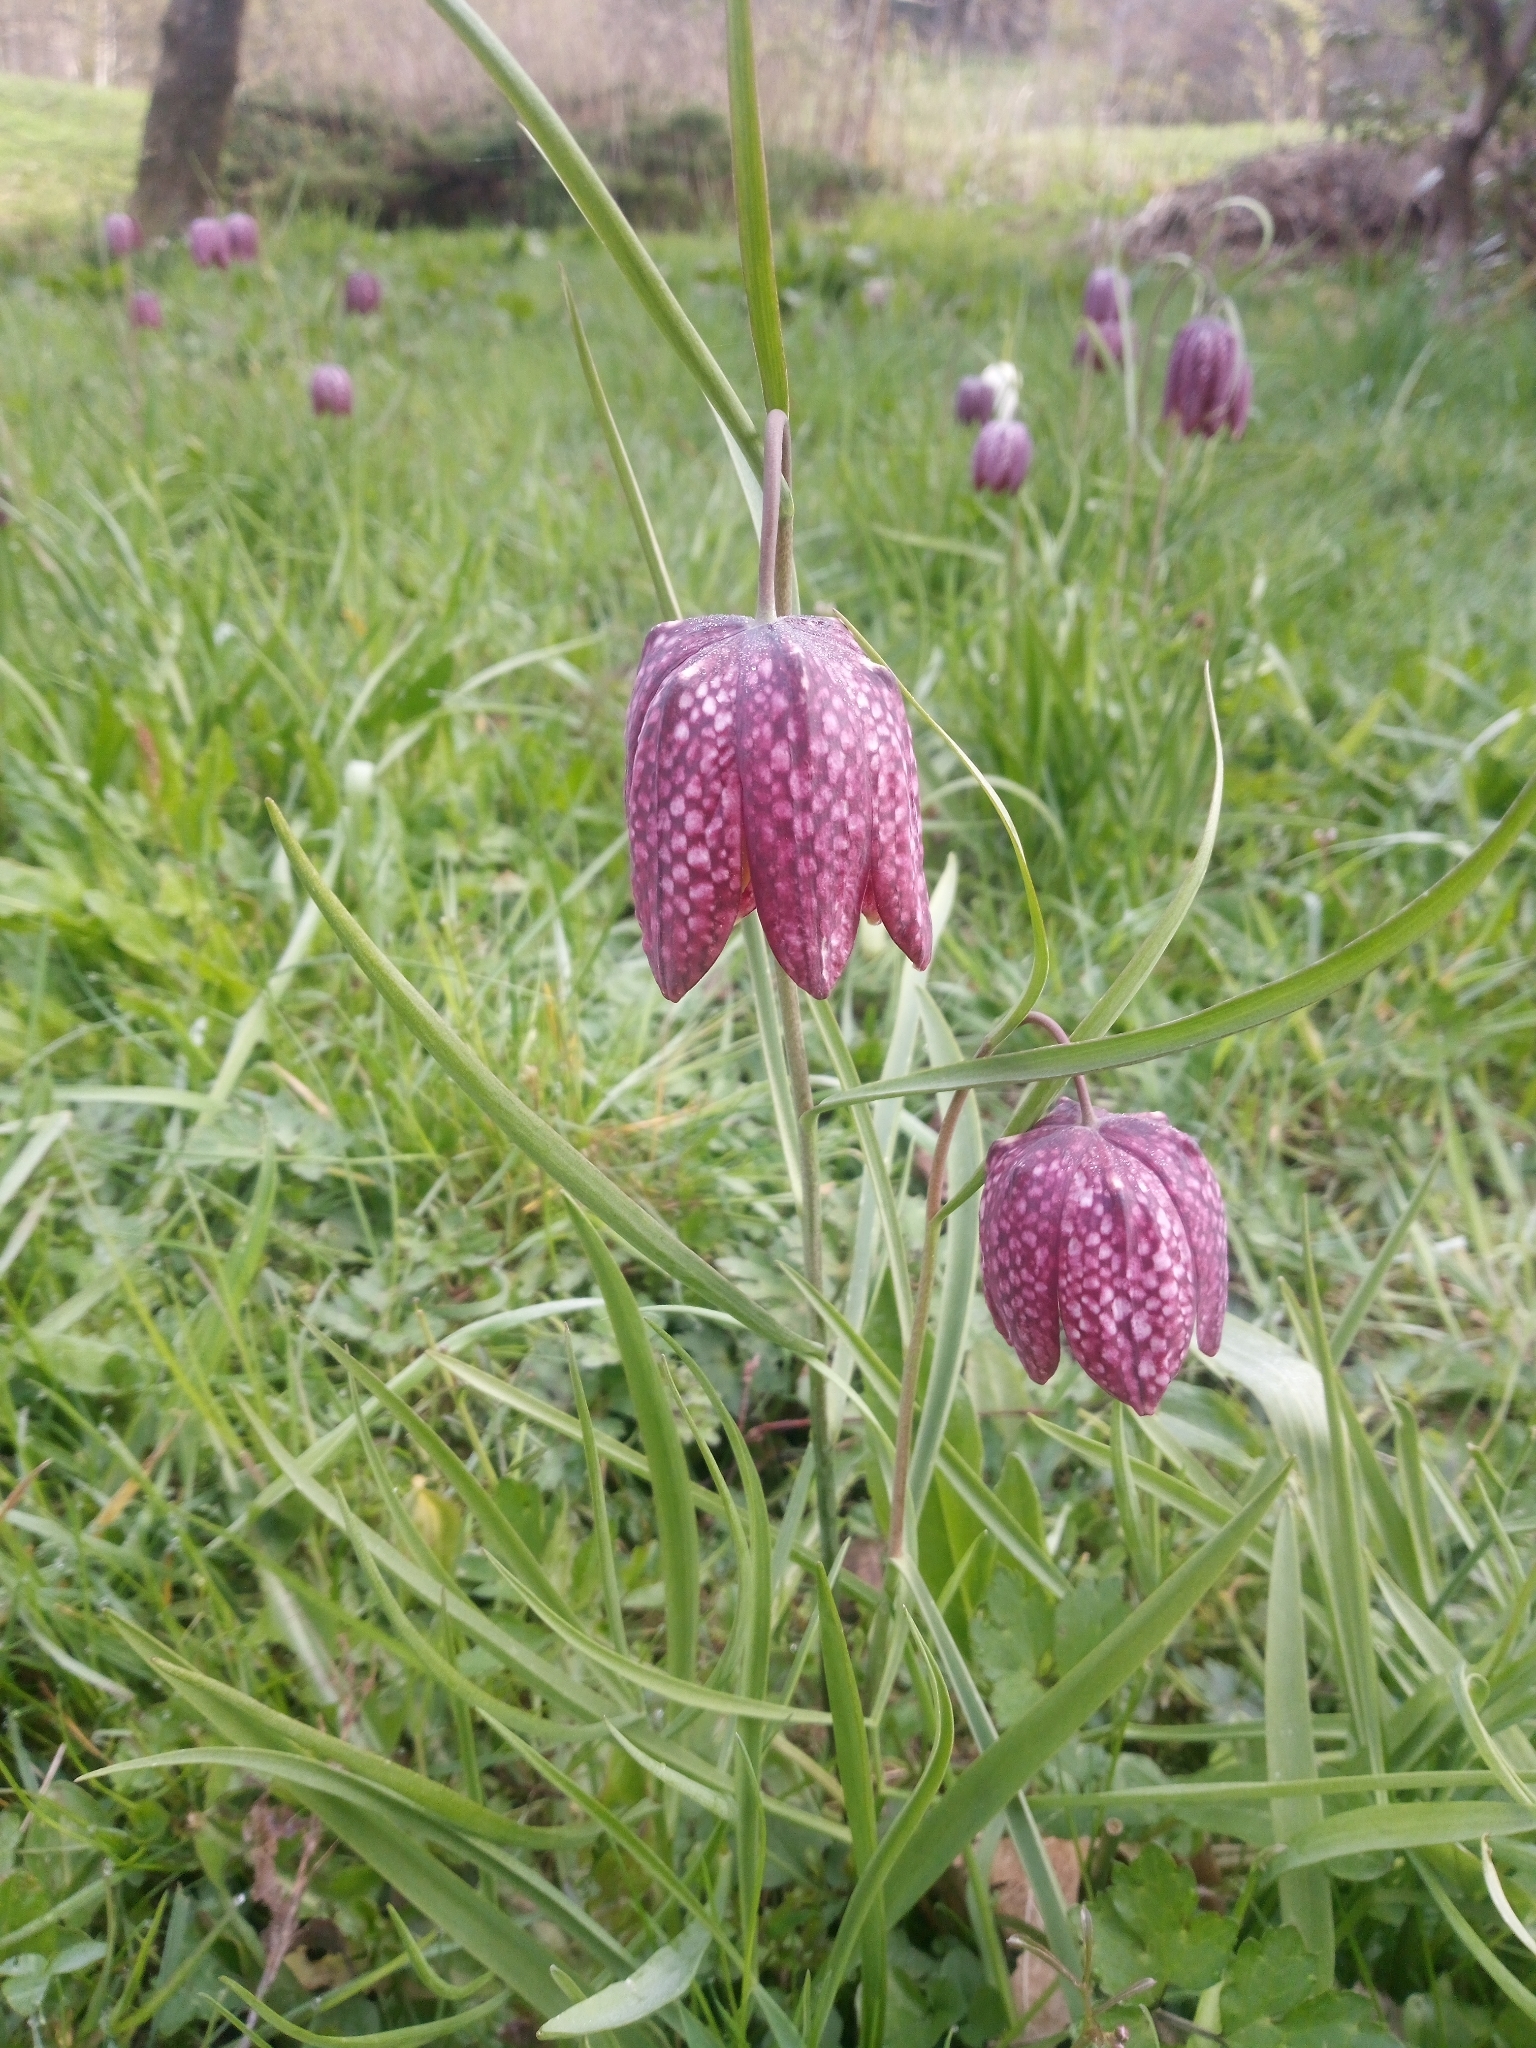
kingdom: Plantae
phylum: Tracheophyta
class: Liliopsida
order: Liliales
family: Liliaceae
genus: Fritillaria
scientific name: Fritillaria meleagris
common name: Fritillary
